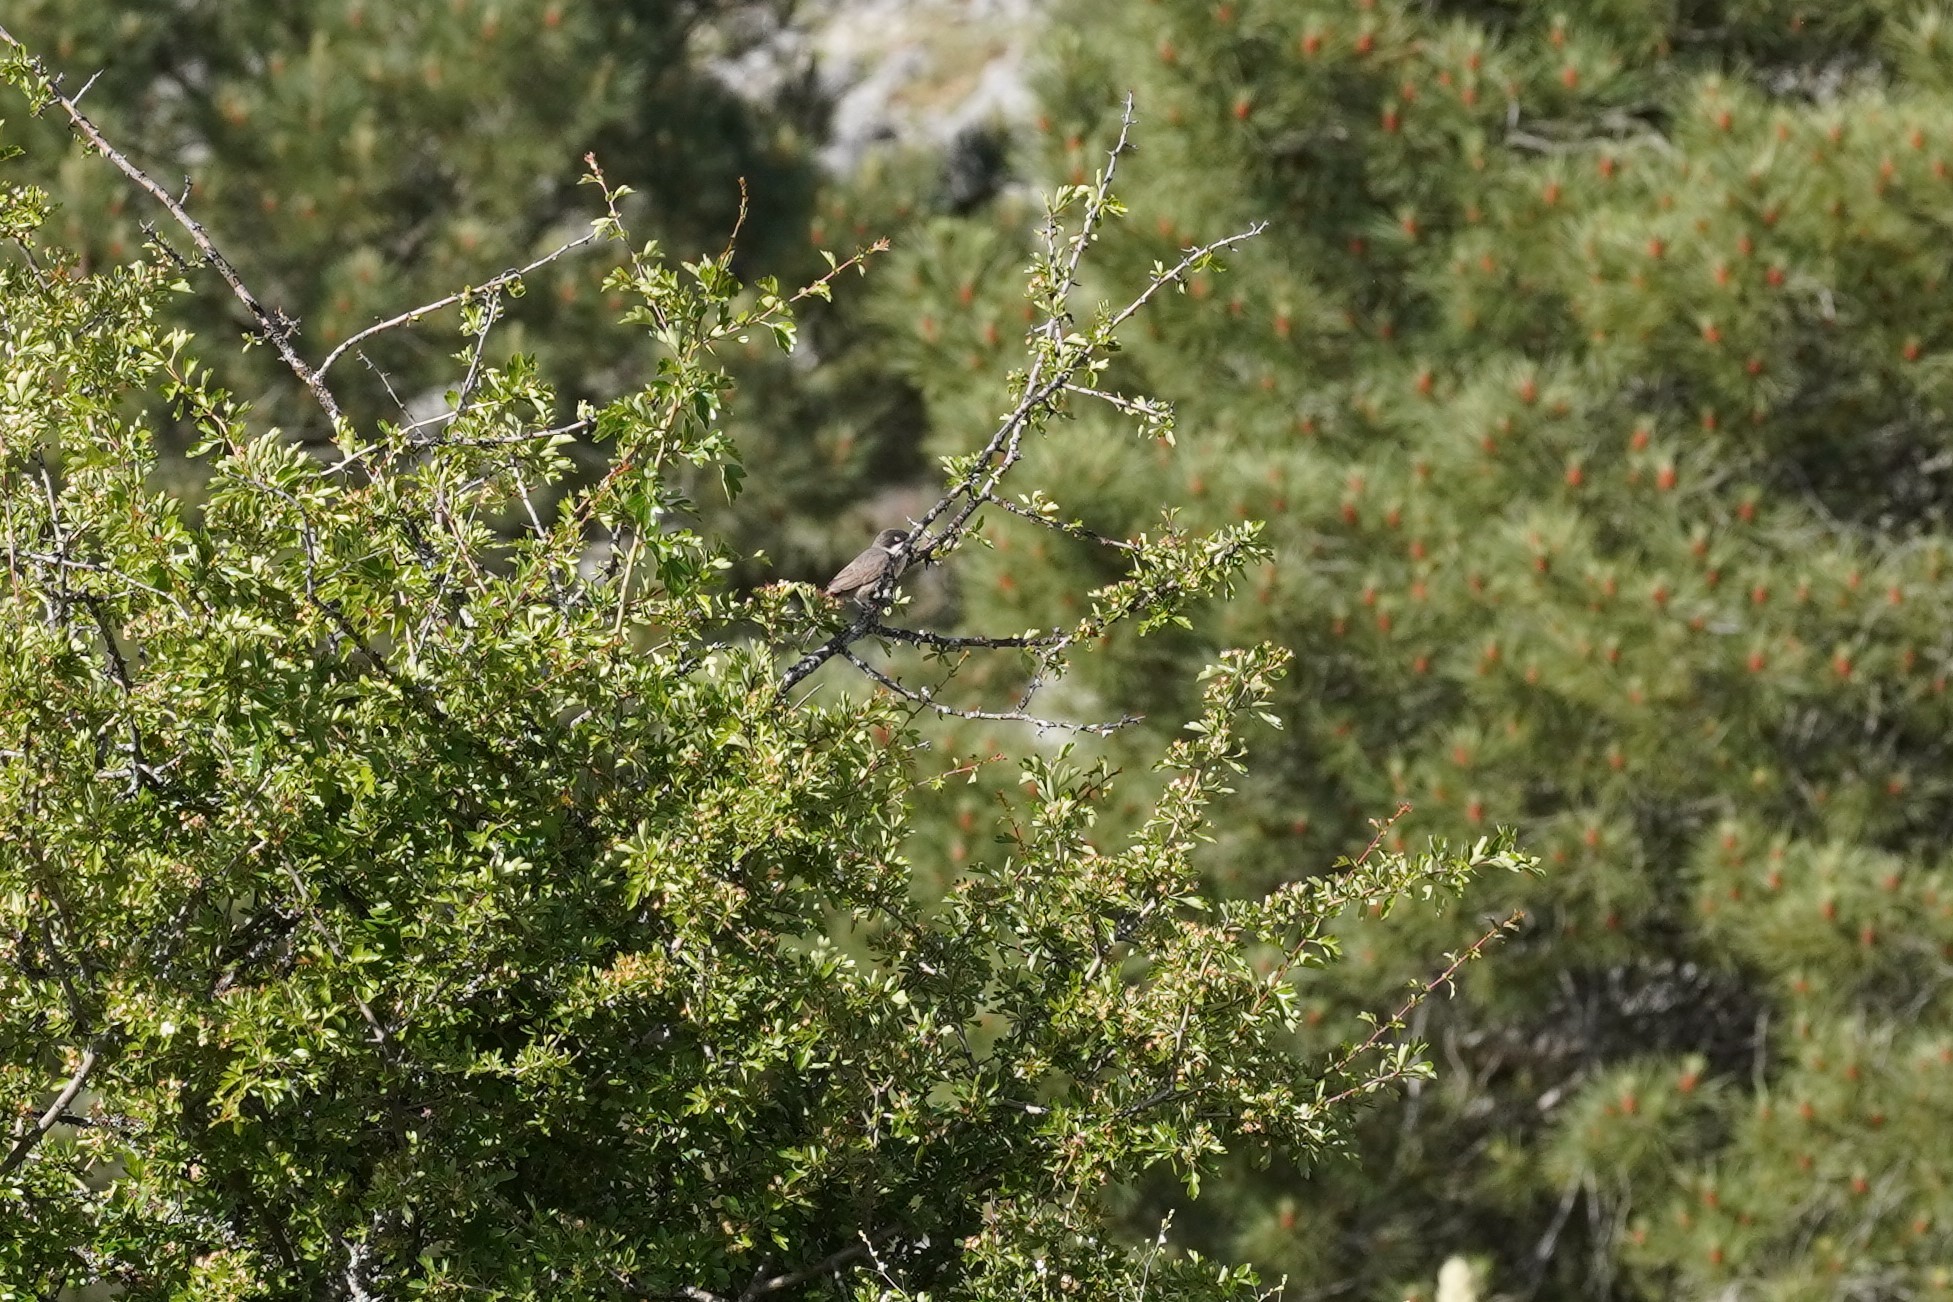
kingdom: Animalia
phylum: Chordata
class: Aves
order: Passeriformes
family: Sylviidae
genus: Sylvia
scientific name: Sylvia hortensis
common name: Orphean warbler
